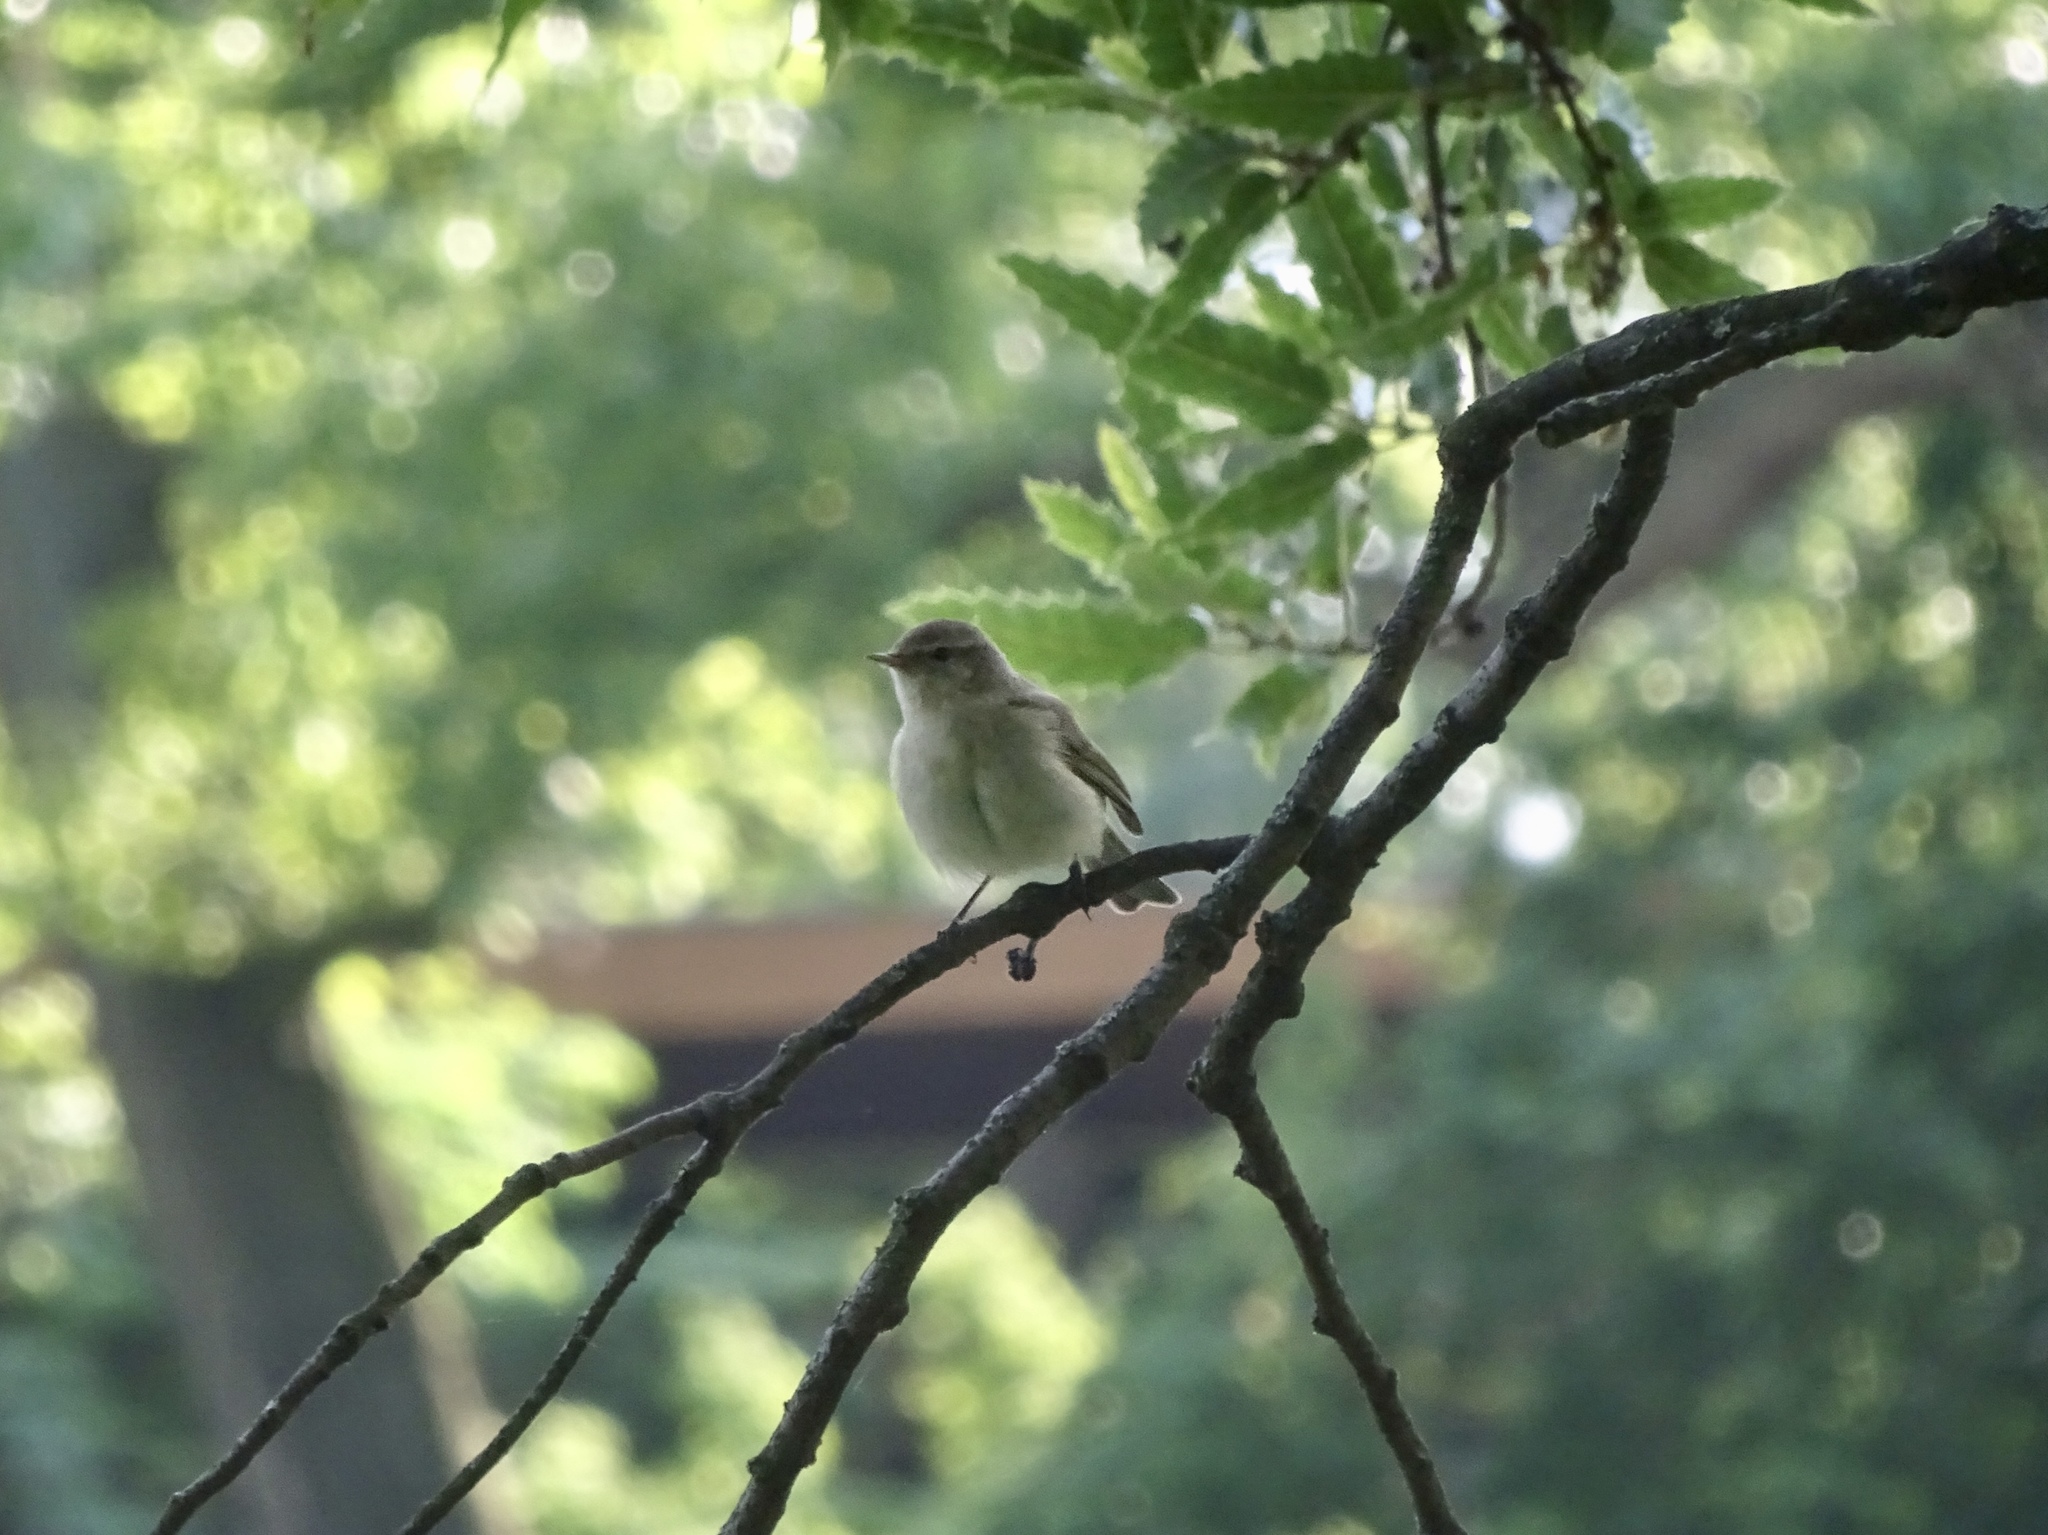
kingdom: Animalia
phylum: Chordata
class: Aves
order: Passeriformes
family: Phylloscopidae
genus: Phylloscopus
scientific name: Phylloscopus collybita
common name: Common chiffchaff
